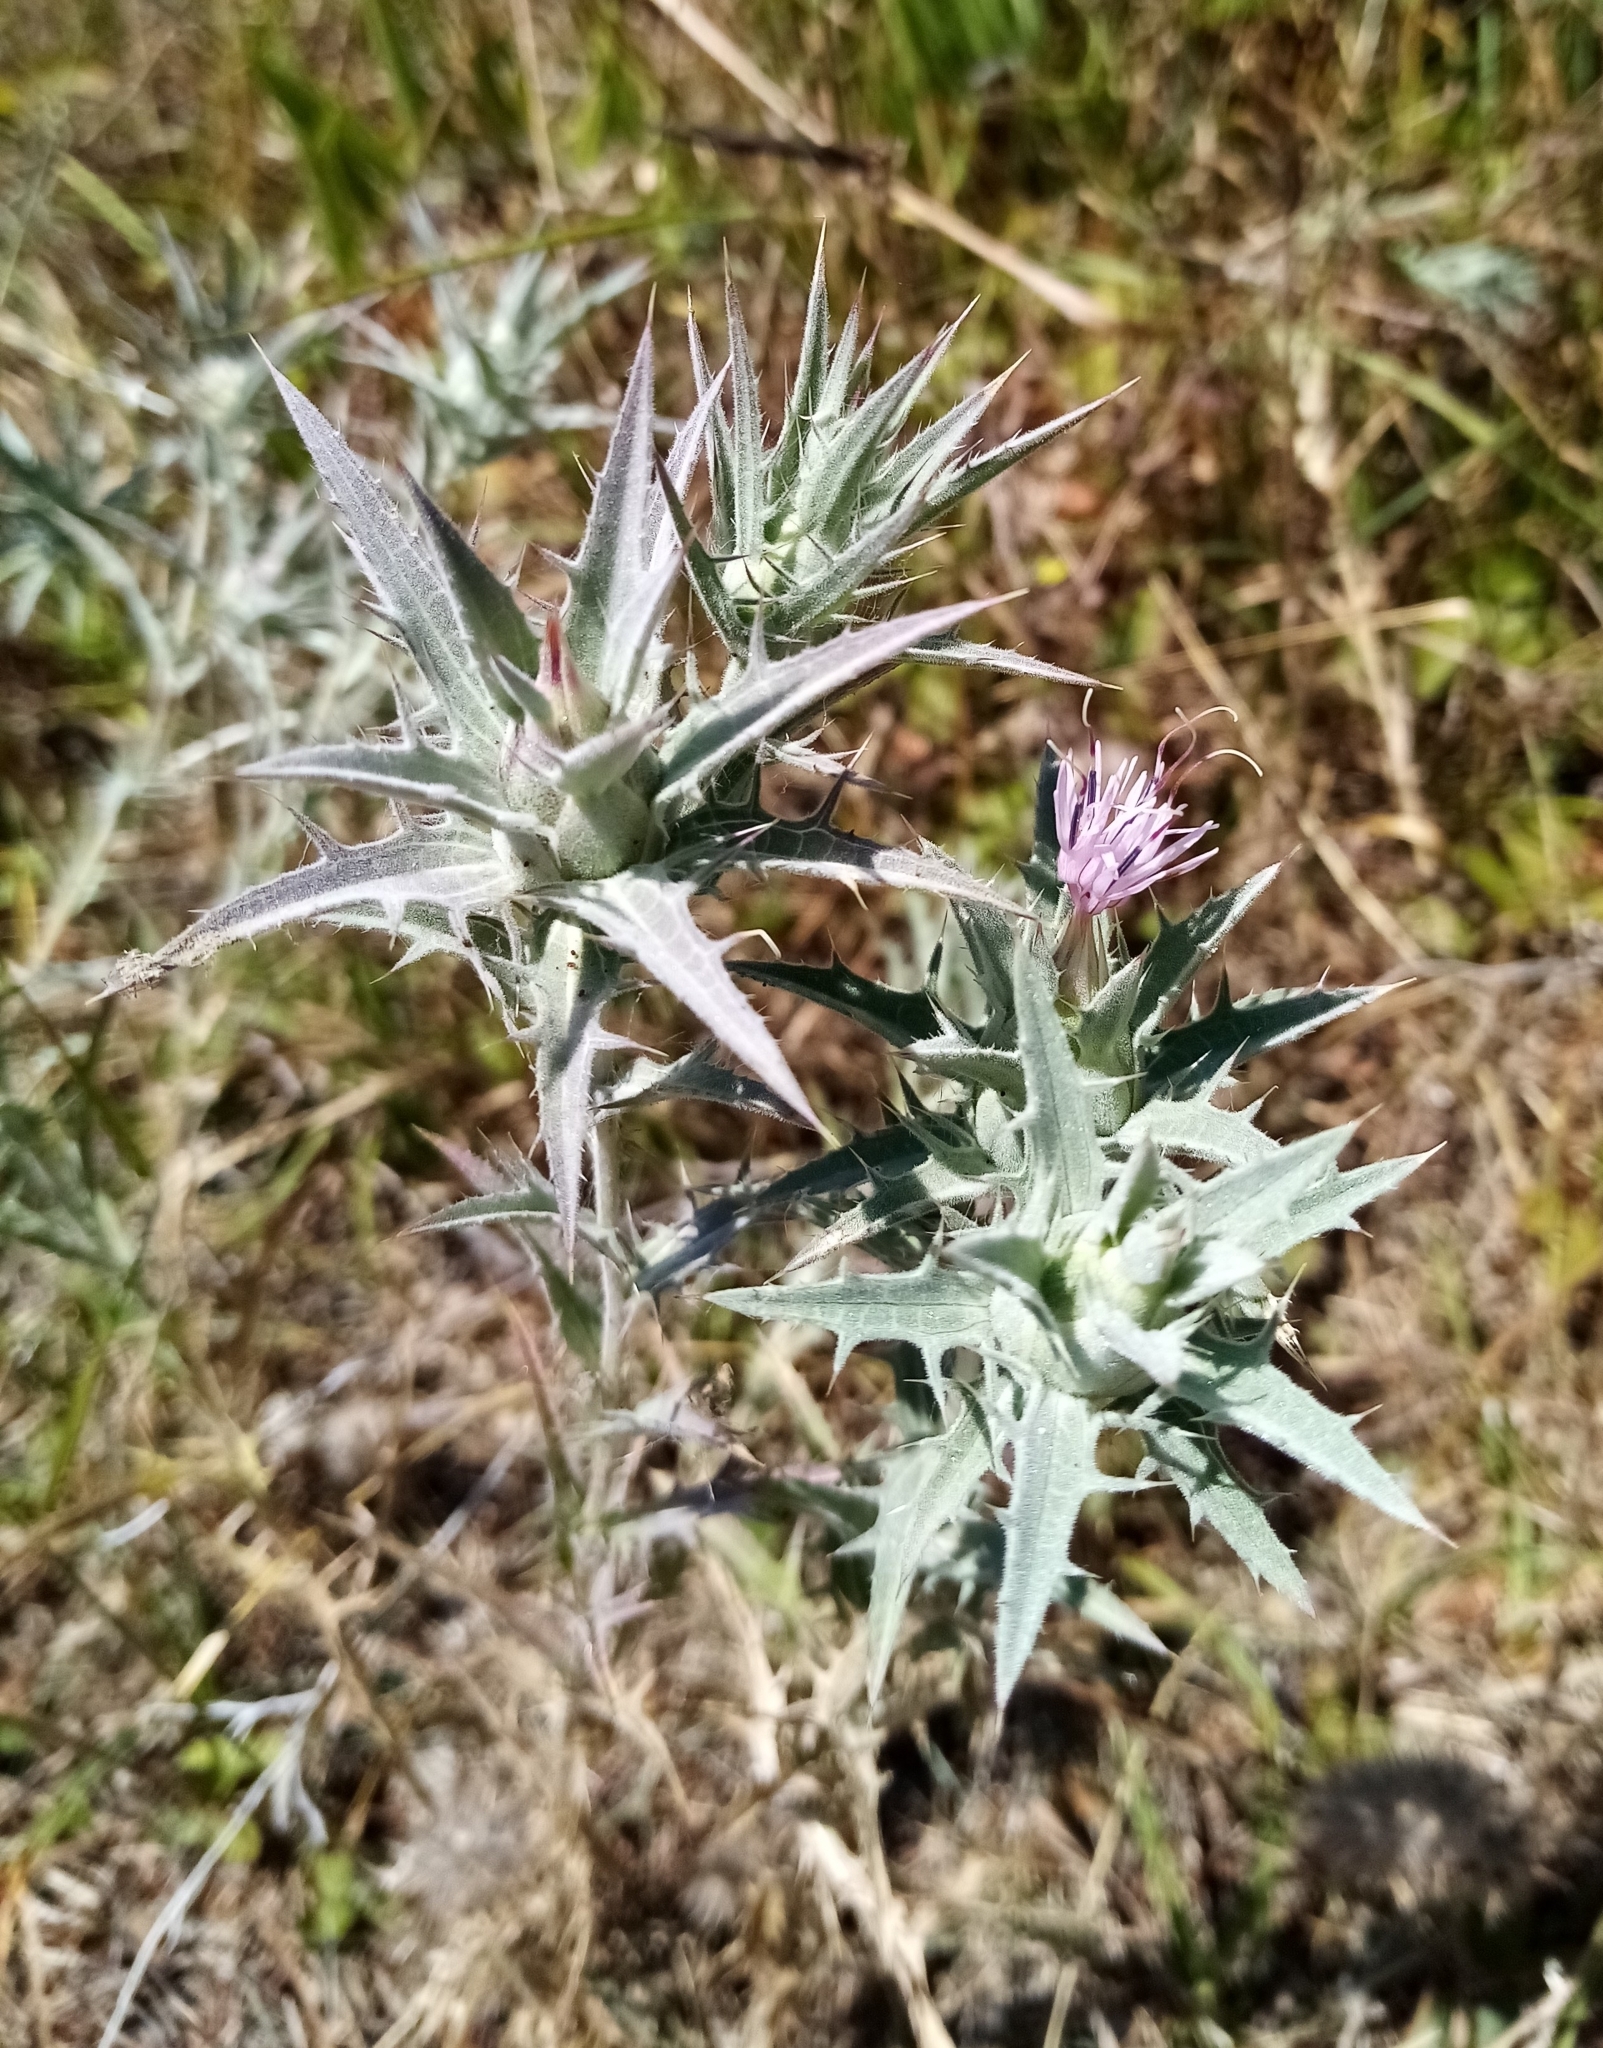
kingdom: Plantae
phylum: Tracheophyta
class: Magnoliopsida
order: Asterales
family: Asteraceae
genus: Carthamus
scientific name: Carthamus glaucus
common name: Mediterranean thistle
